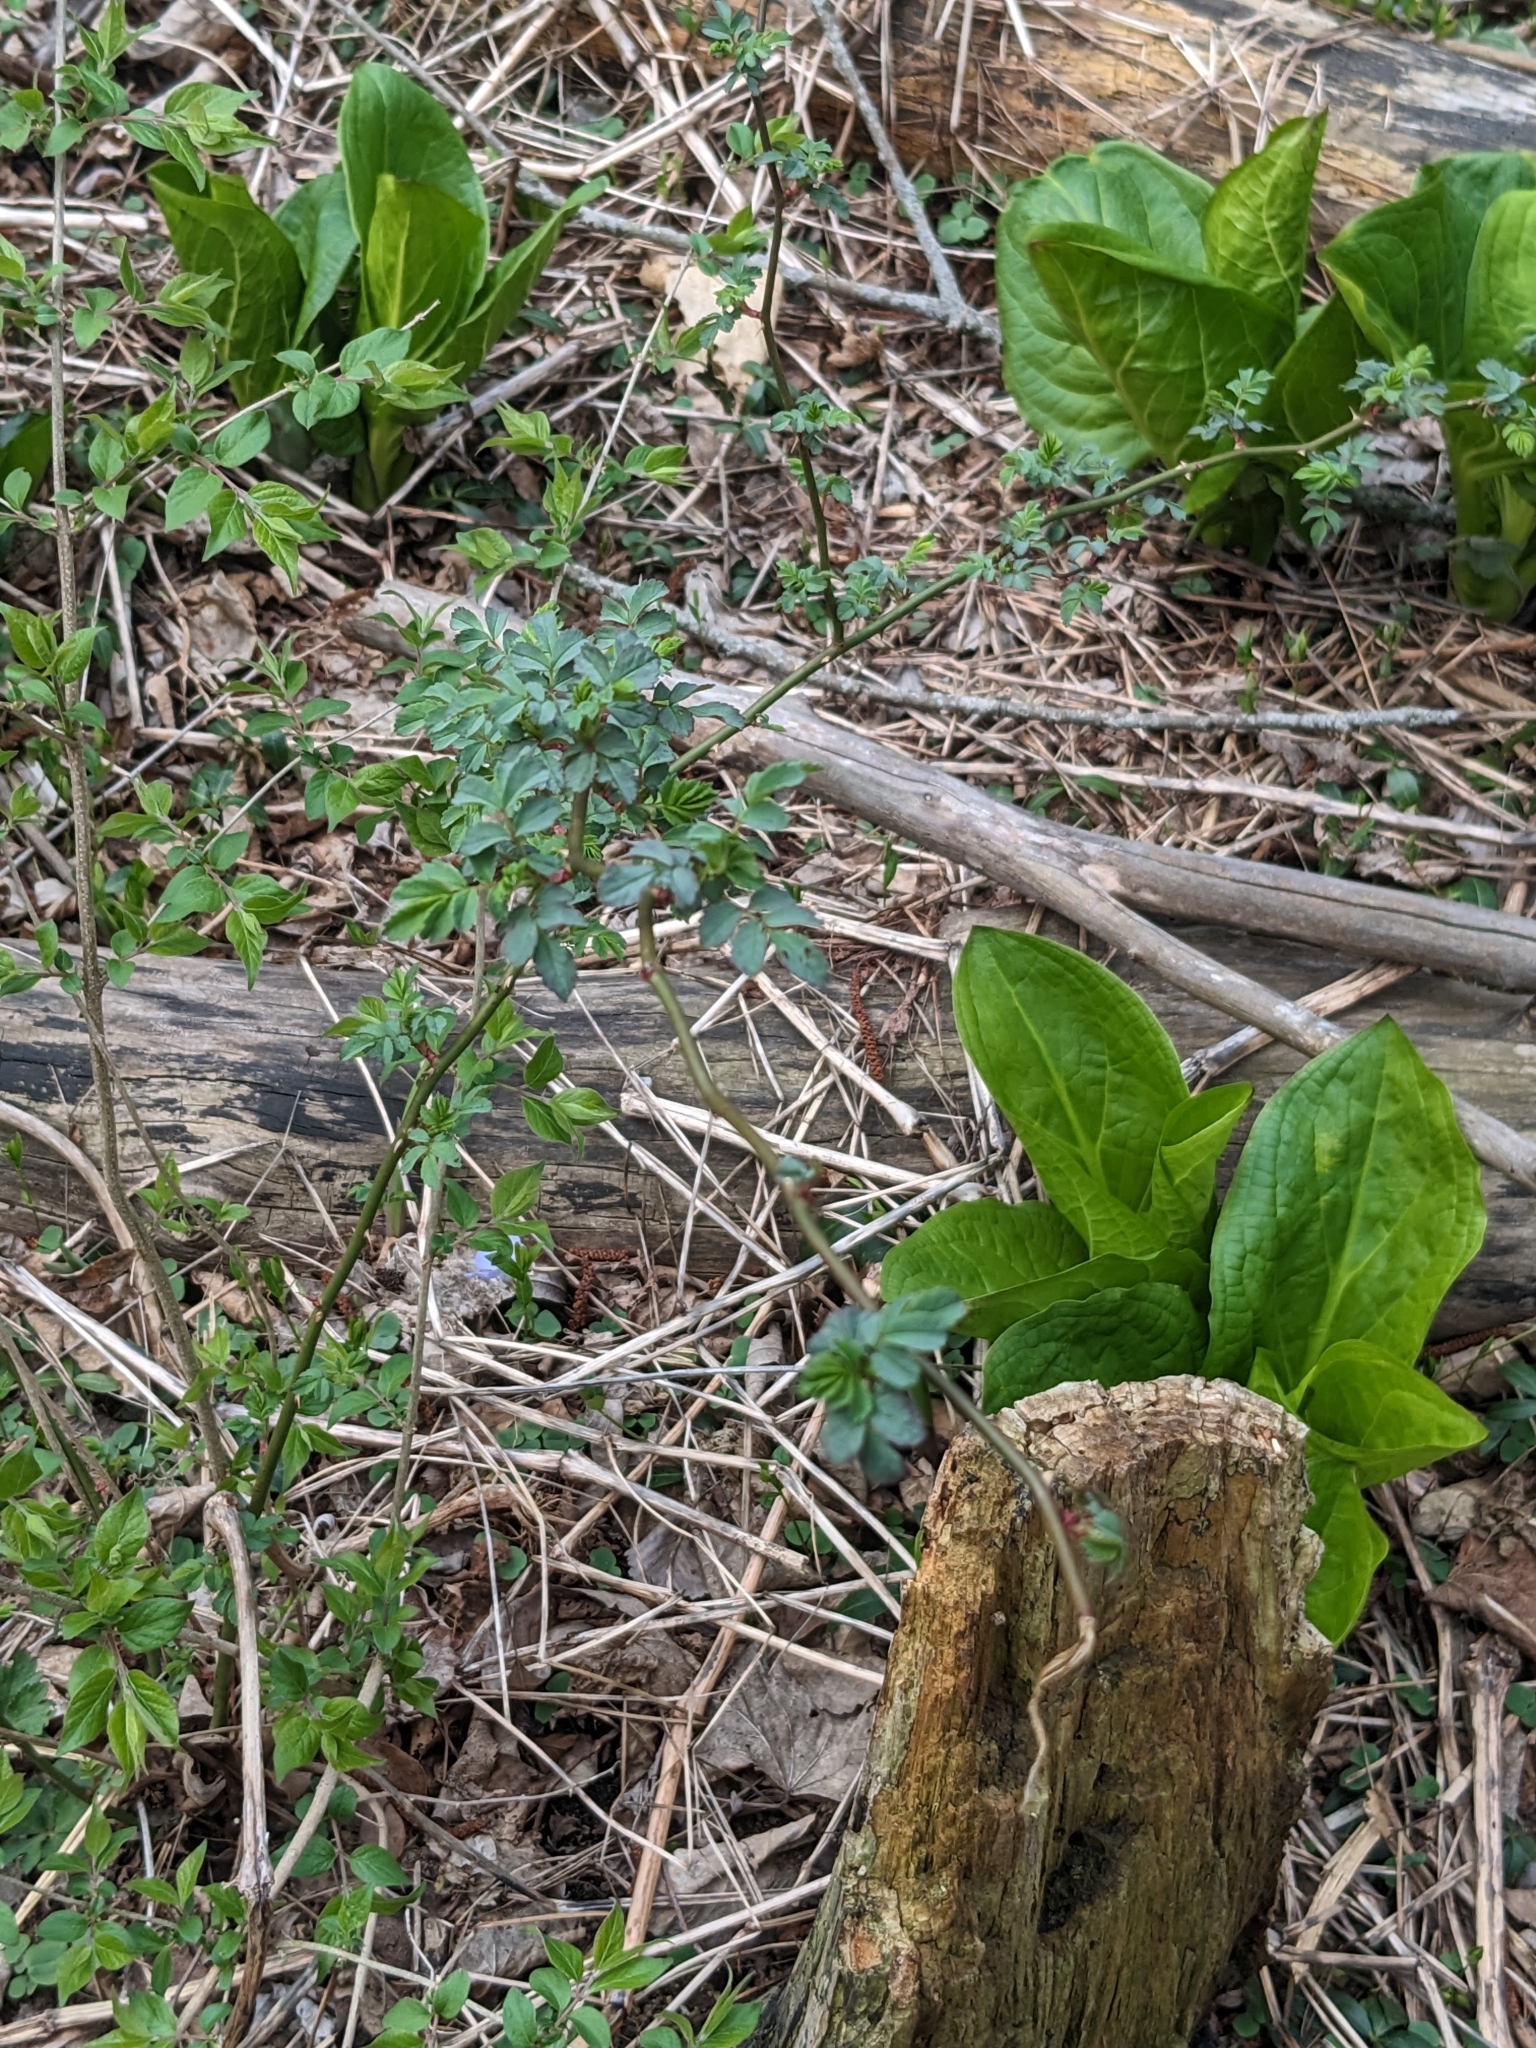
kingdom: Plantae
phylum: Tracheophyta
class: Magnoliopsida
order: Rosales
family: Rosaceae
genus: Rosa
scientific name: Rosa multiflora
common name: Multiflora rose
